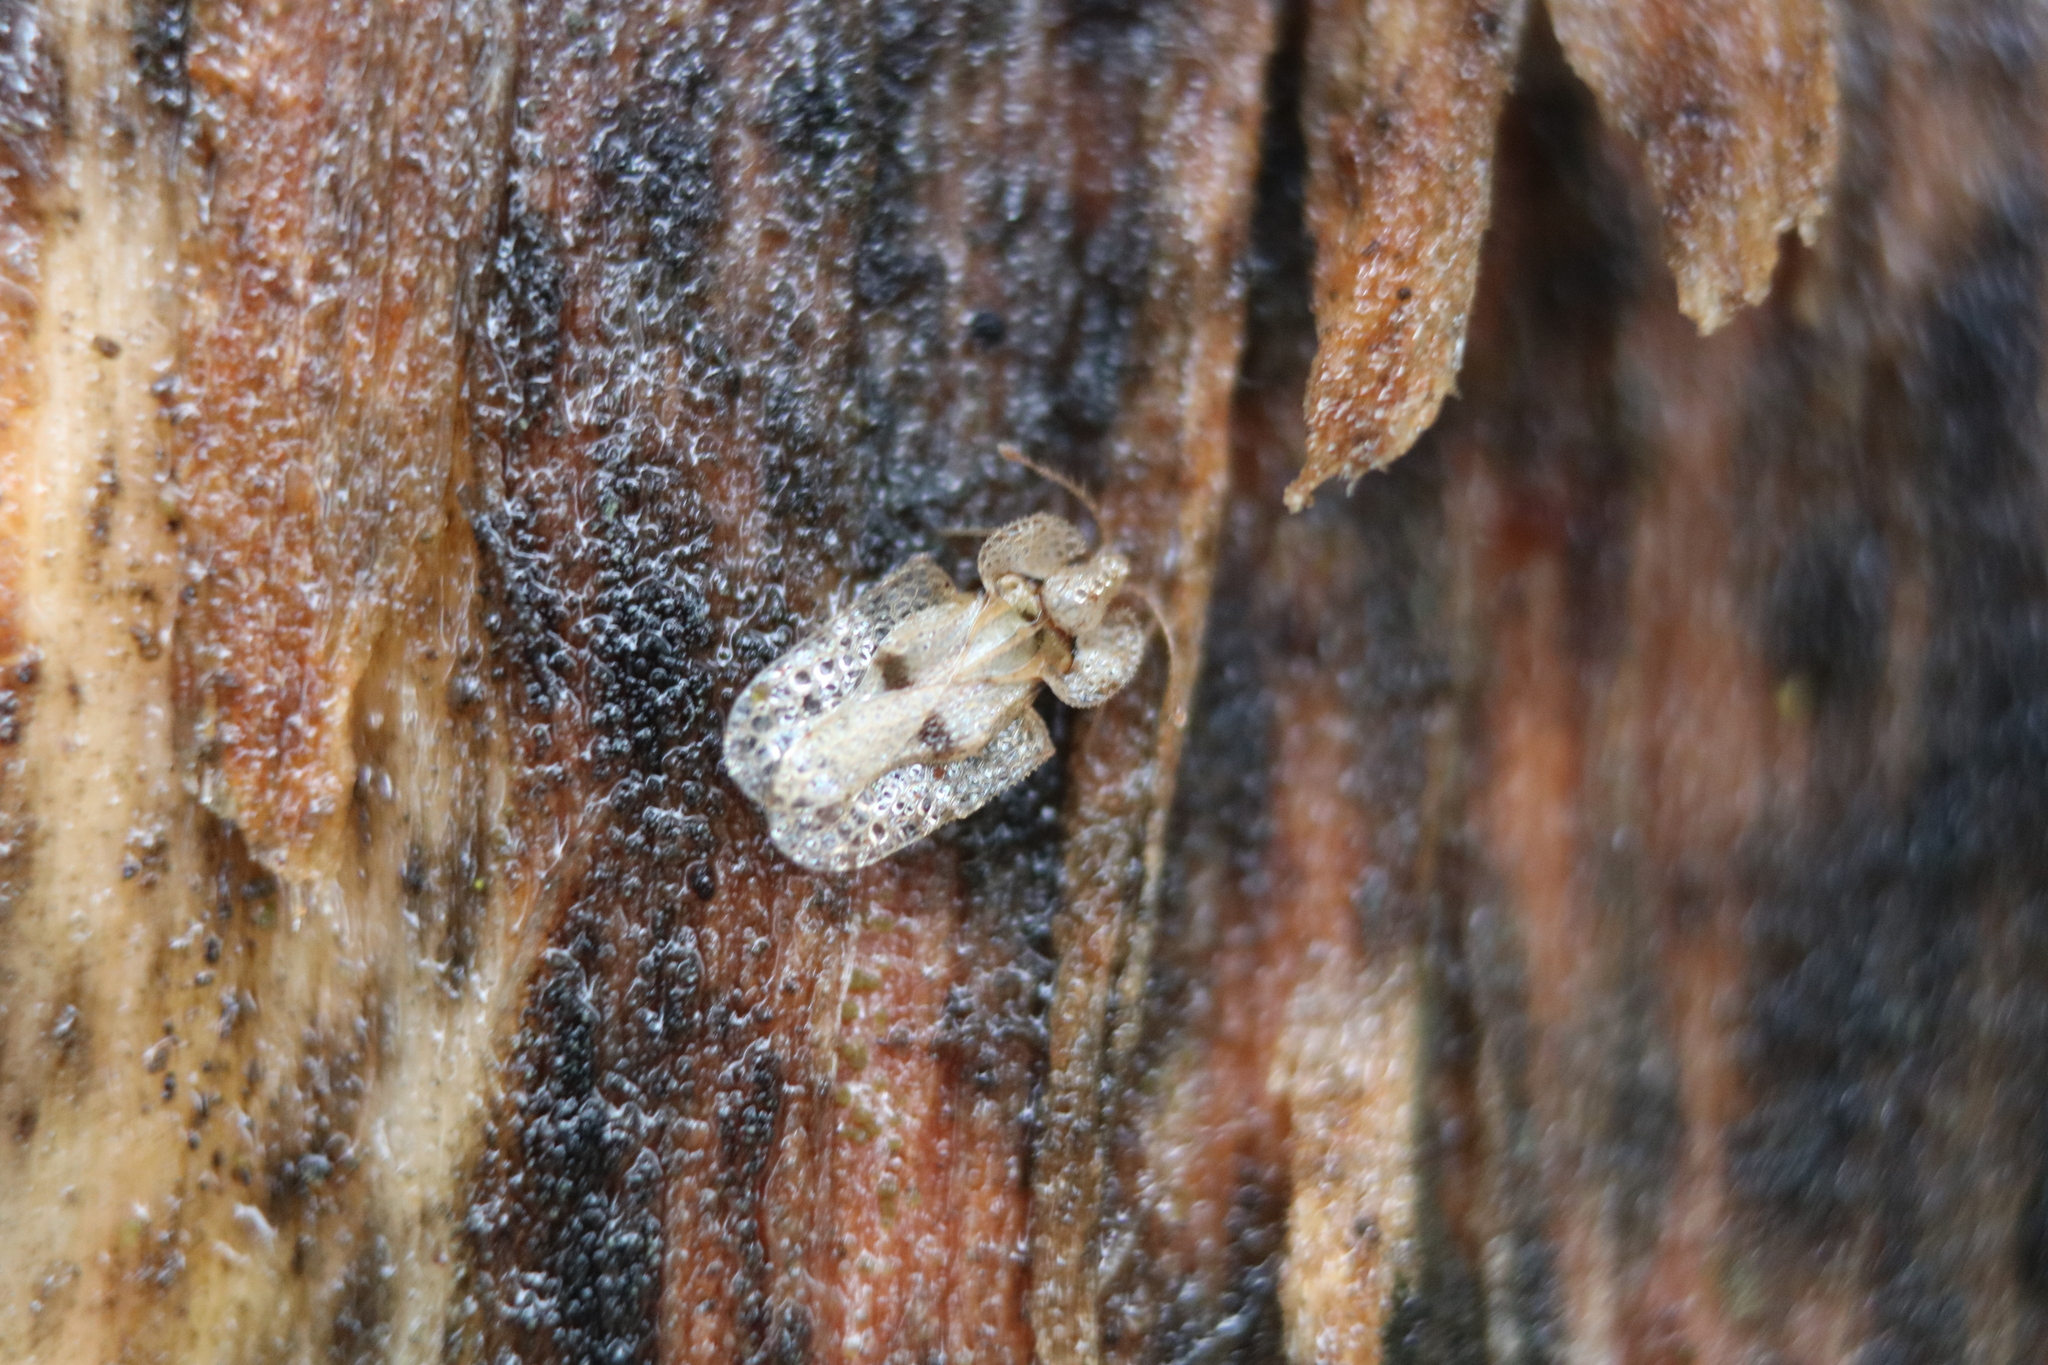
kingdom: Animalia
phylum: Arthropoda
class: Insecta
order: Hemiptera
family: Tingidae
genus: Corythucha
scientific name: Corythucha ciliata
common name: Sycamore lace bug
